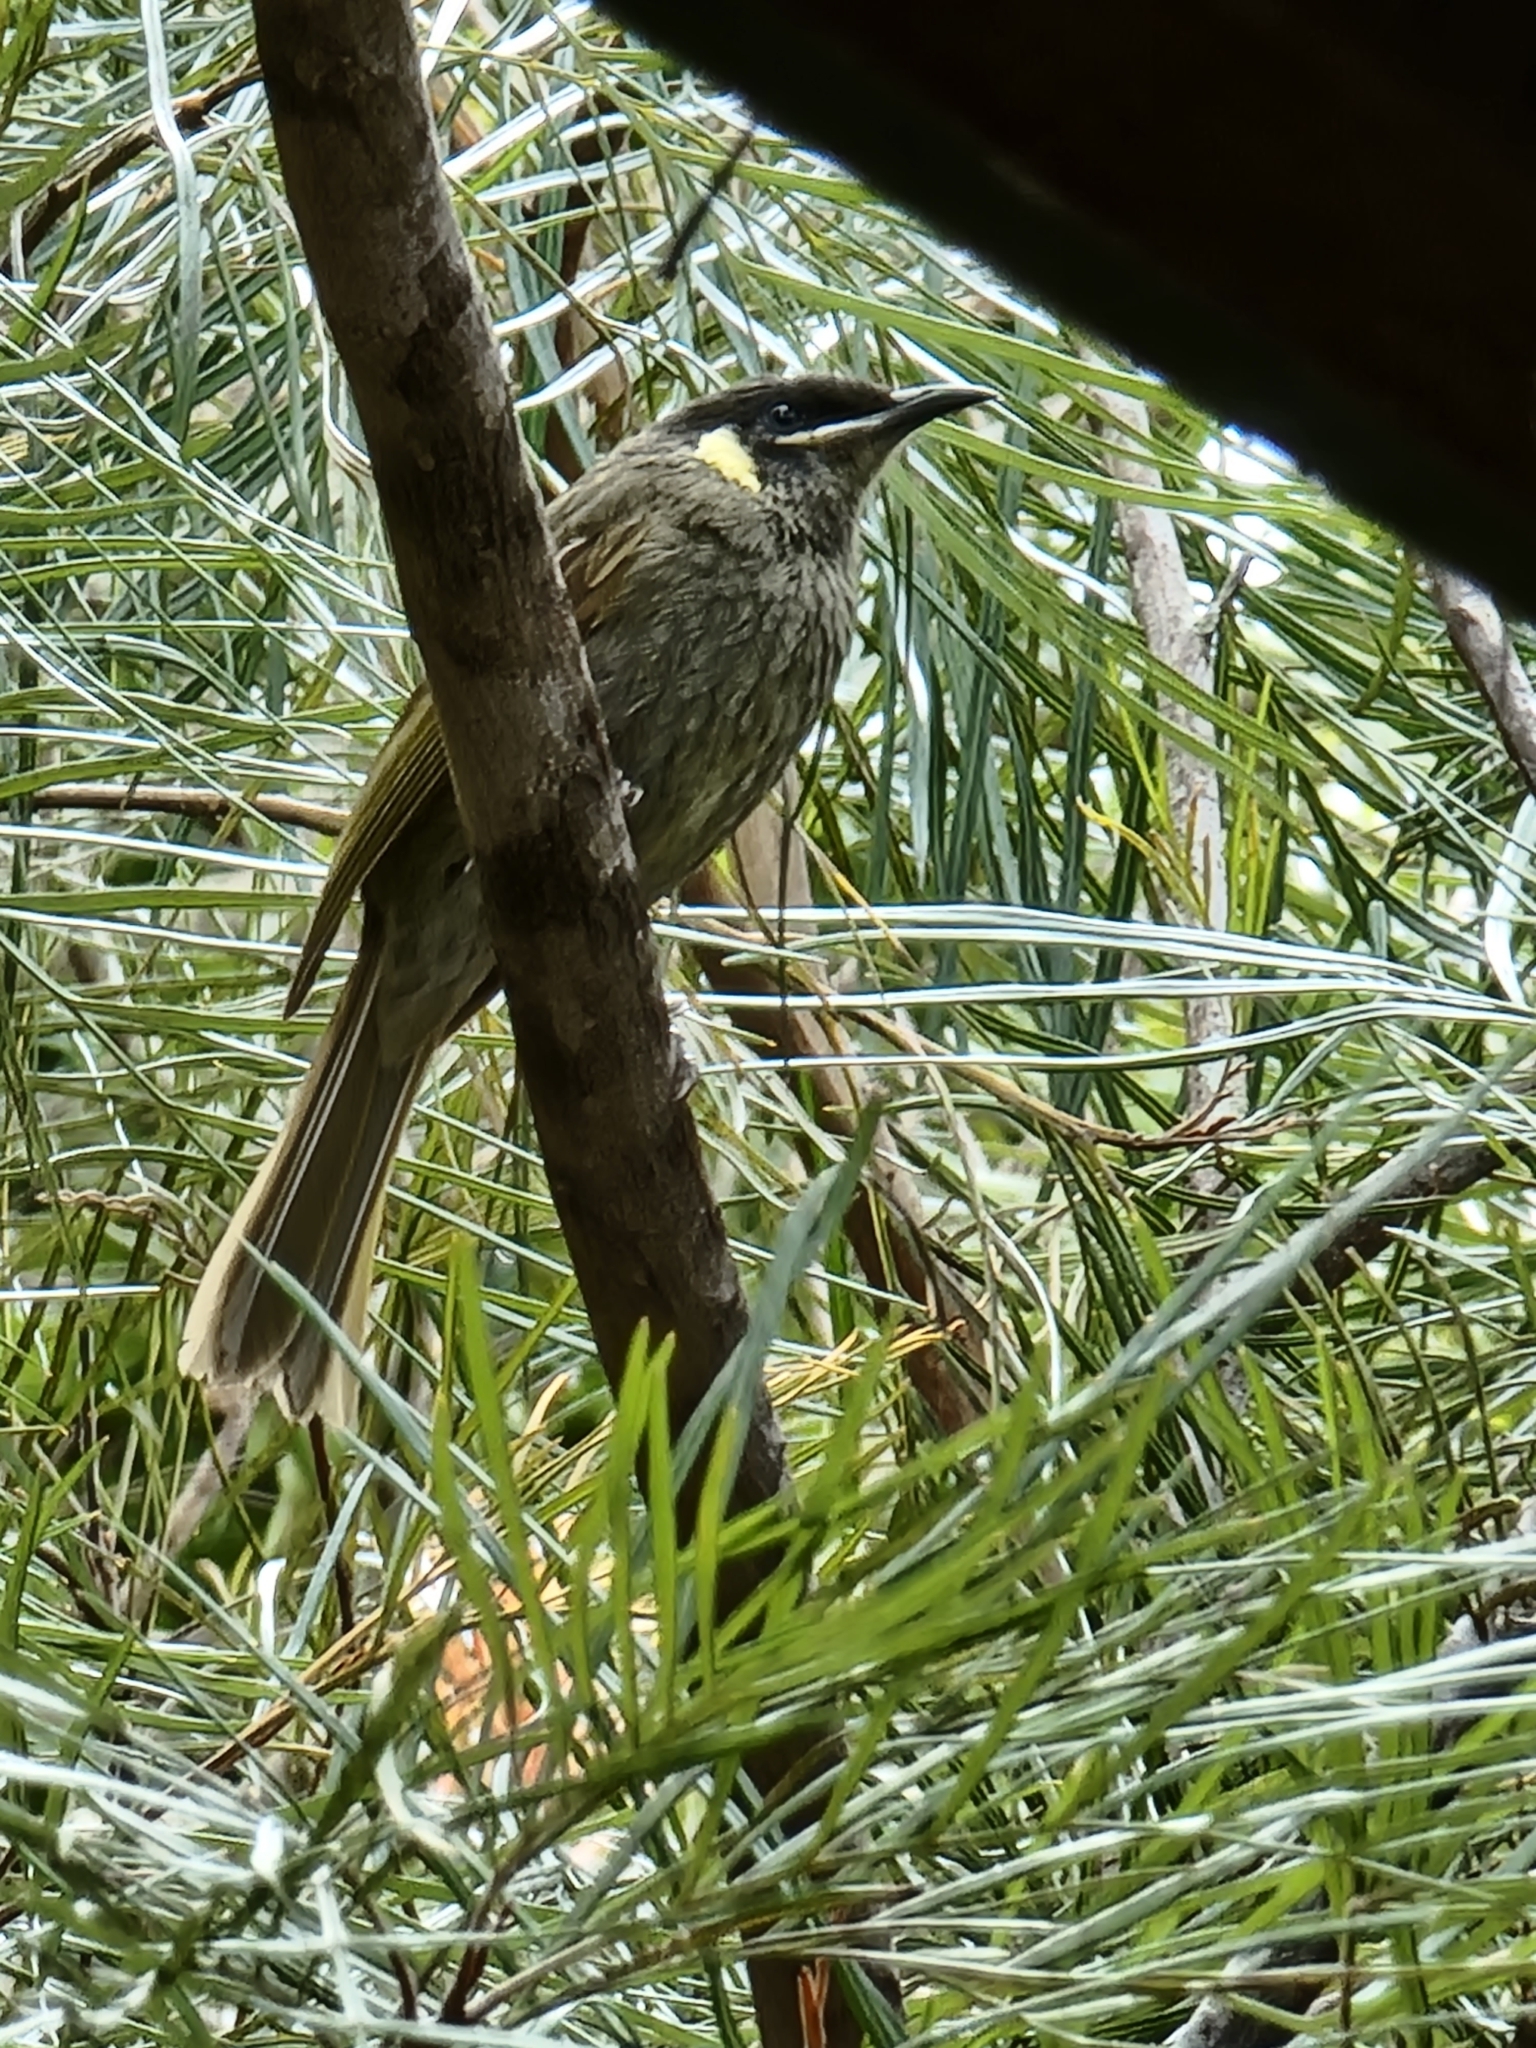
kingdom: Animalia
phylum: Chordata
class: Aves
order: Passeriformes
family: Meliphagidae
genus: Meliphaga
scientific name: Meliphaga lewinii
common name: Lewin's honeyeater
